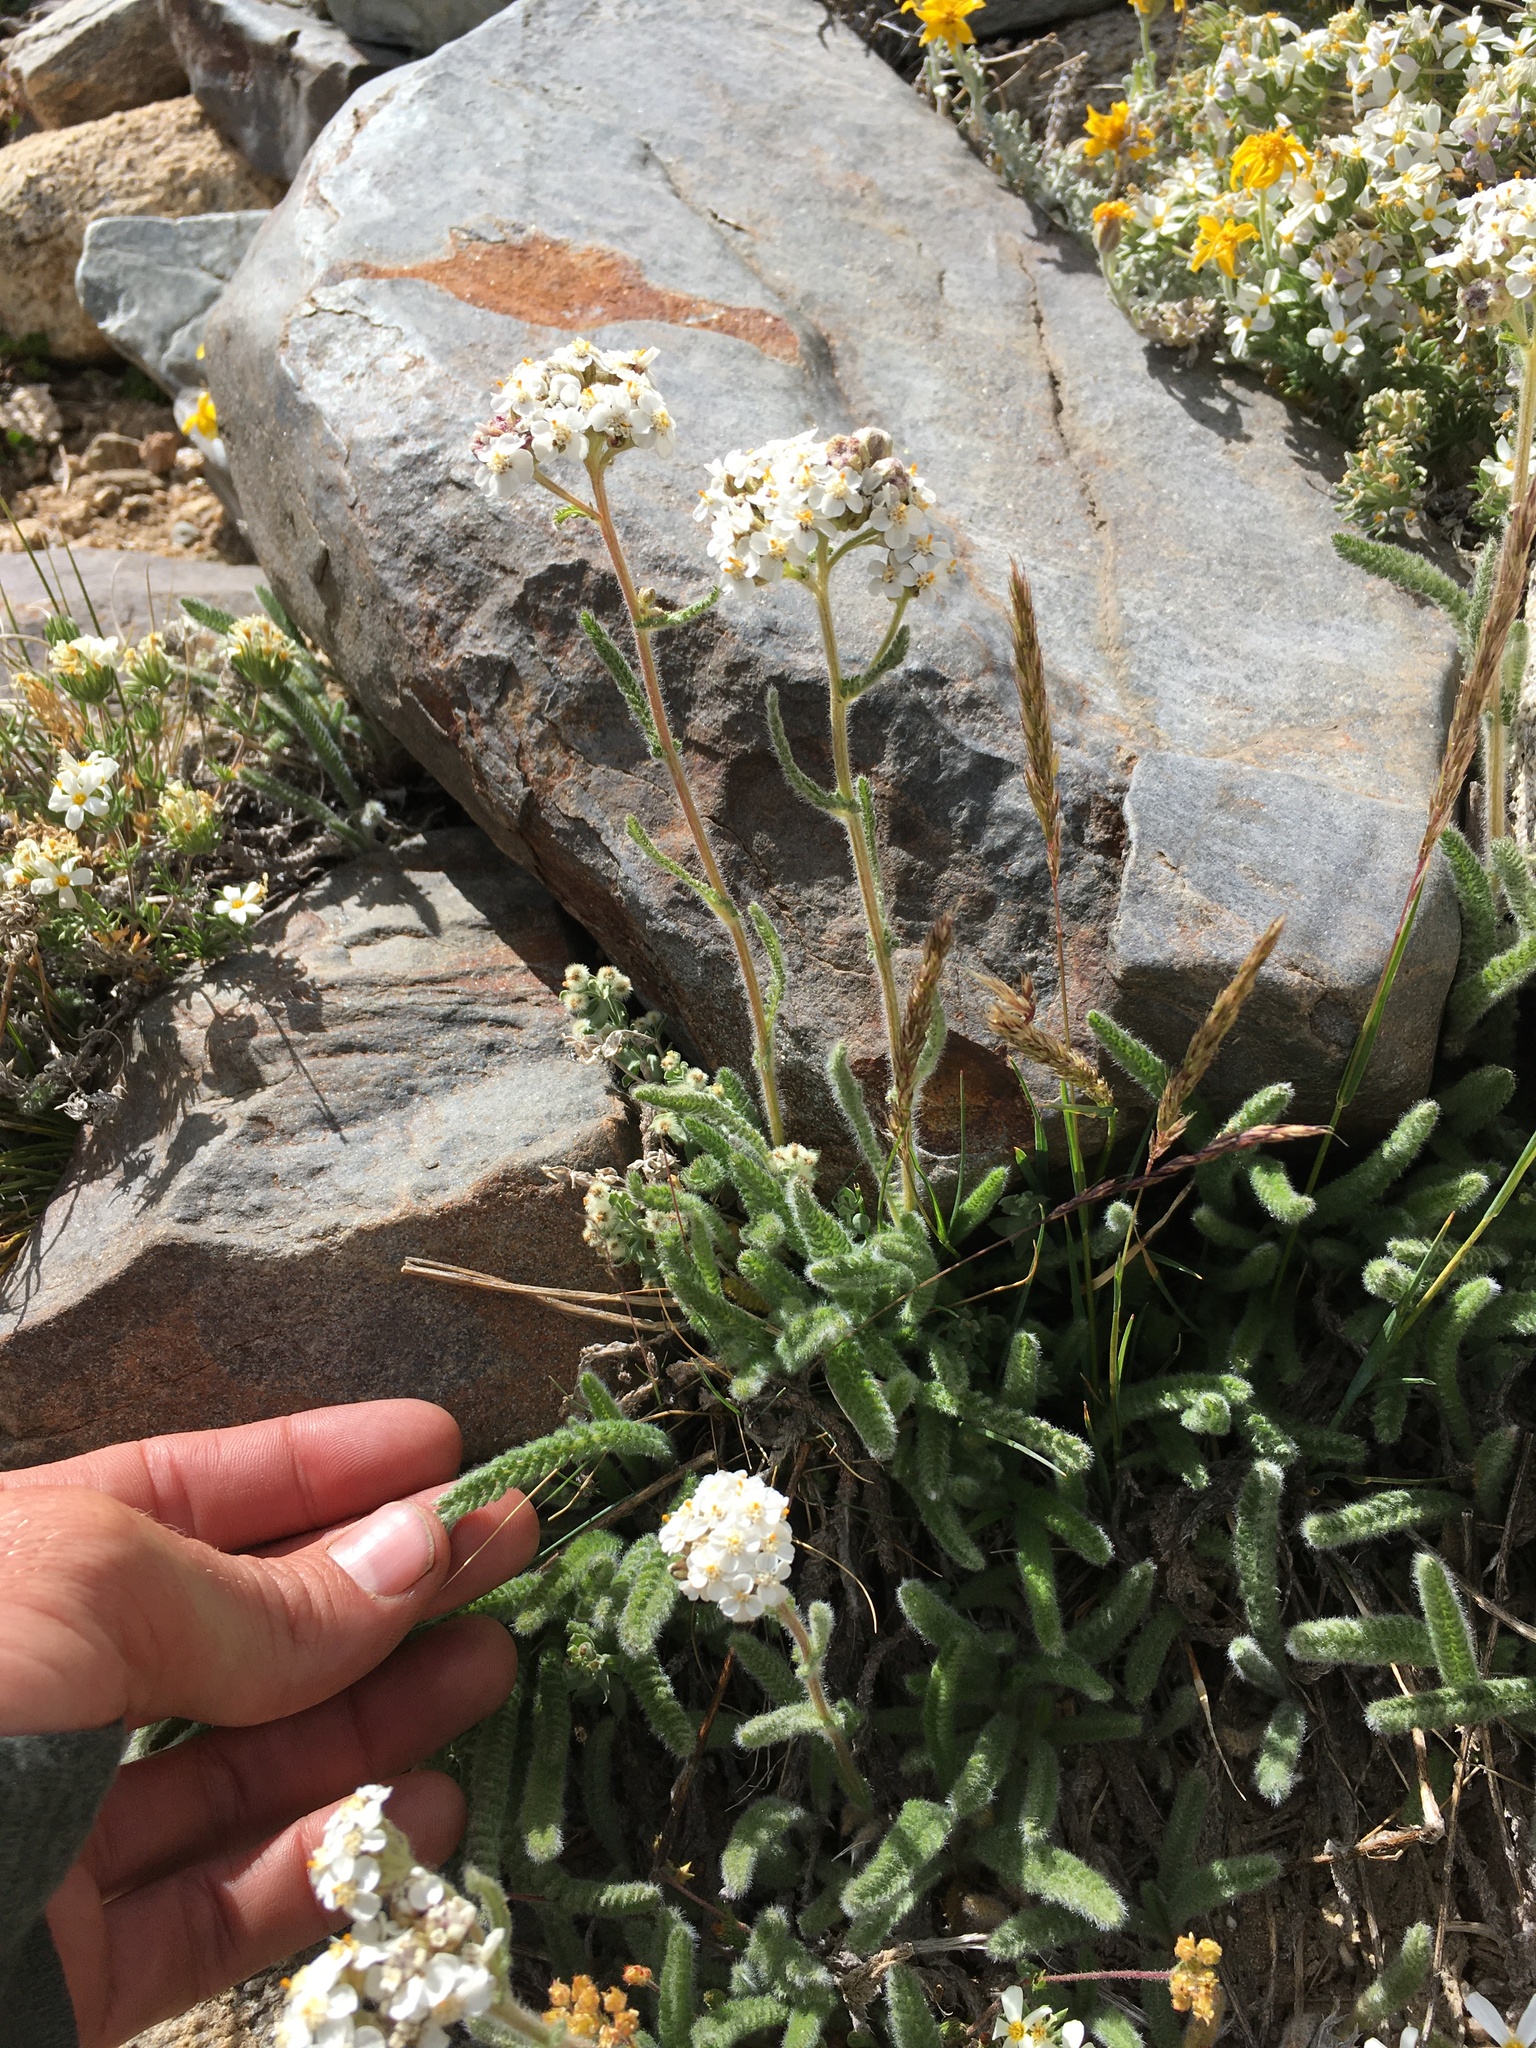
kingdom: Plantae
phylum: Tracheophyta
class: Magnoliopsida
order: Asterales
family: Asteraceae
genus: Achillea
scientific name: Achillea millefolium
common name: Yarrow
